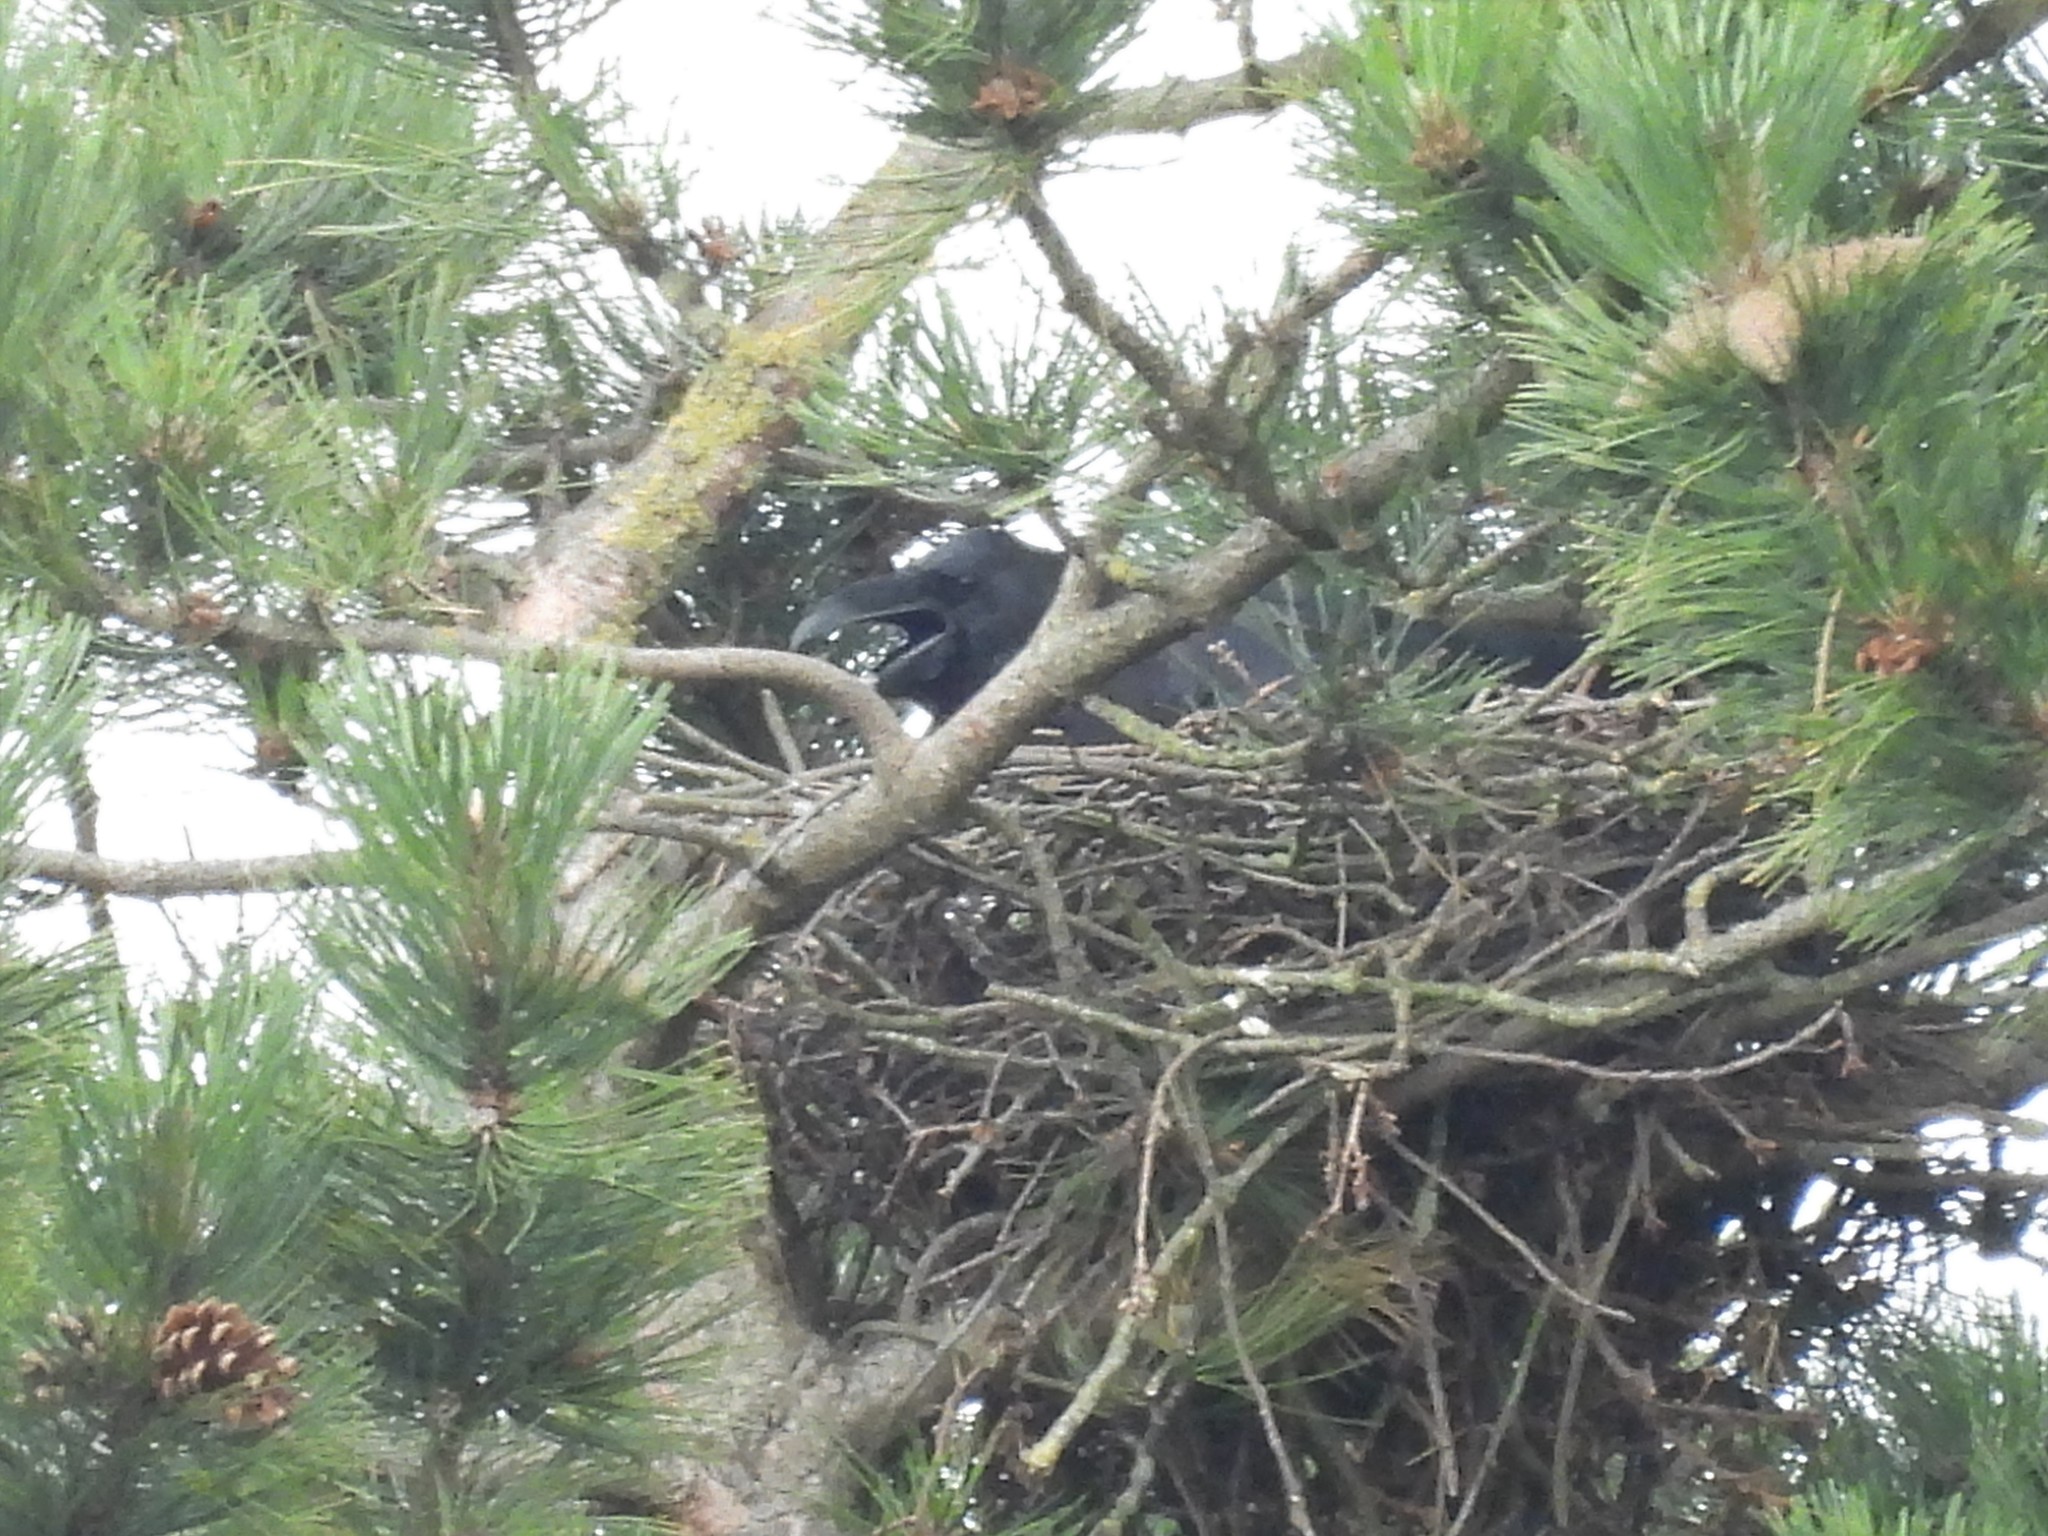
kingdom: Animalia
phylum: Chordata
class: Aves
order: Passeriformes
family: Corvidae
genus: Corvus
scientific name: Corvus corax
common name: Common raven
